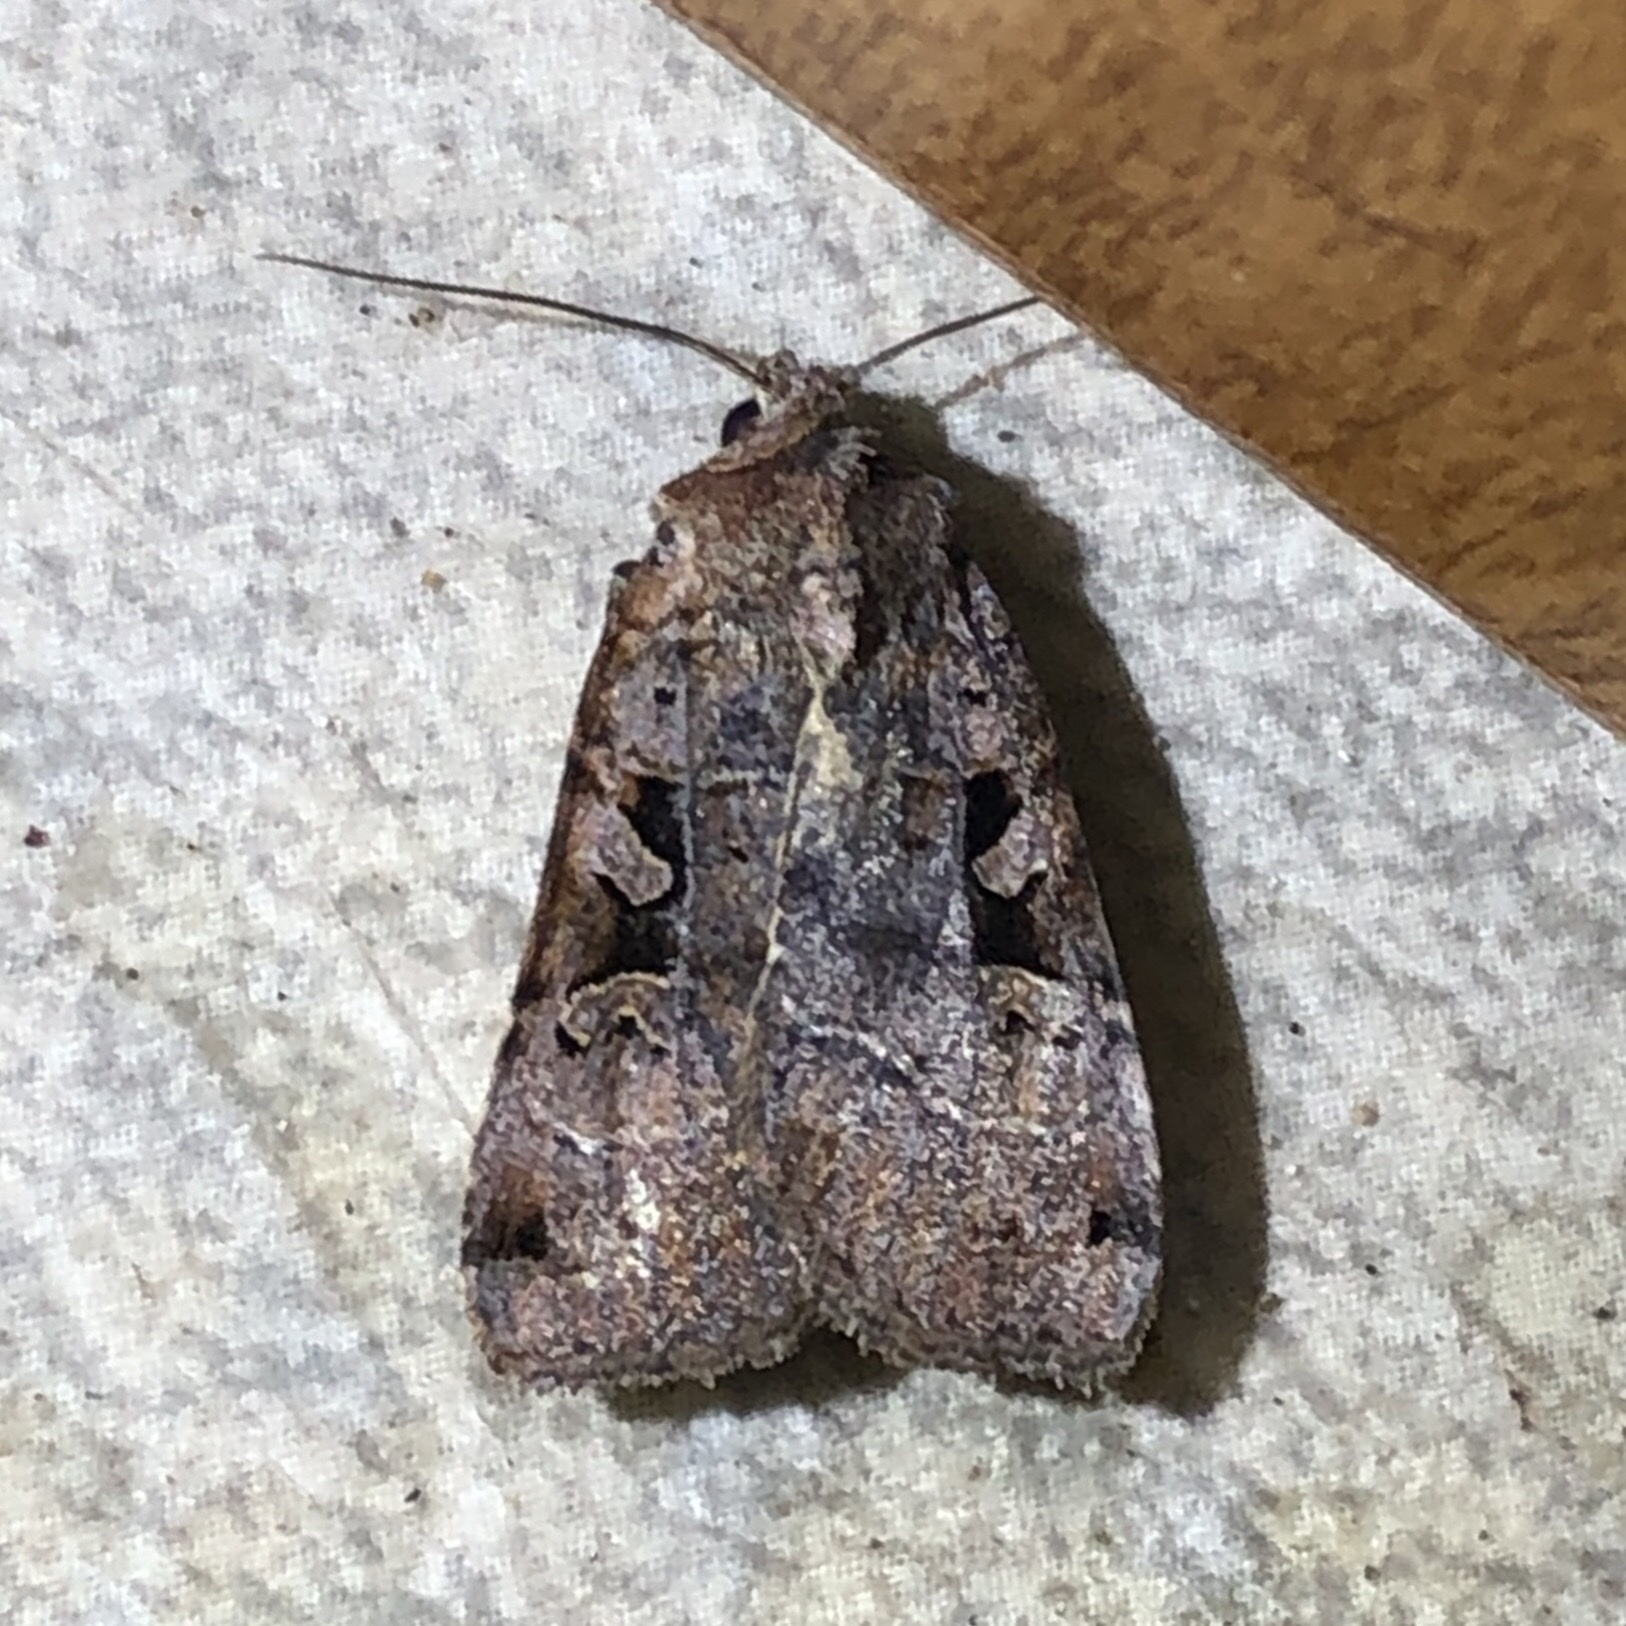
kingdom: Animalia
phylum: Arthropoda
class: Insecta
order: Lepidoptera
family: Noctuidae
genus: Xestia
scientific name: Xestia normaniana
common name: Norman's dart moth
